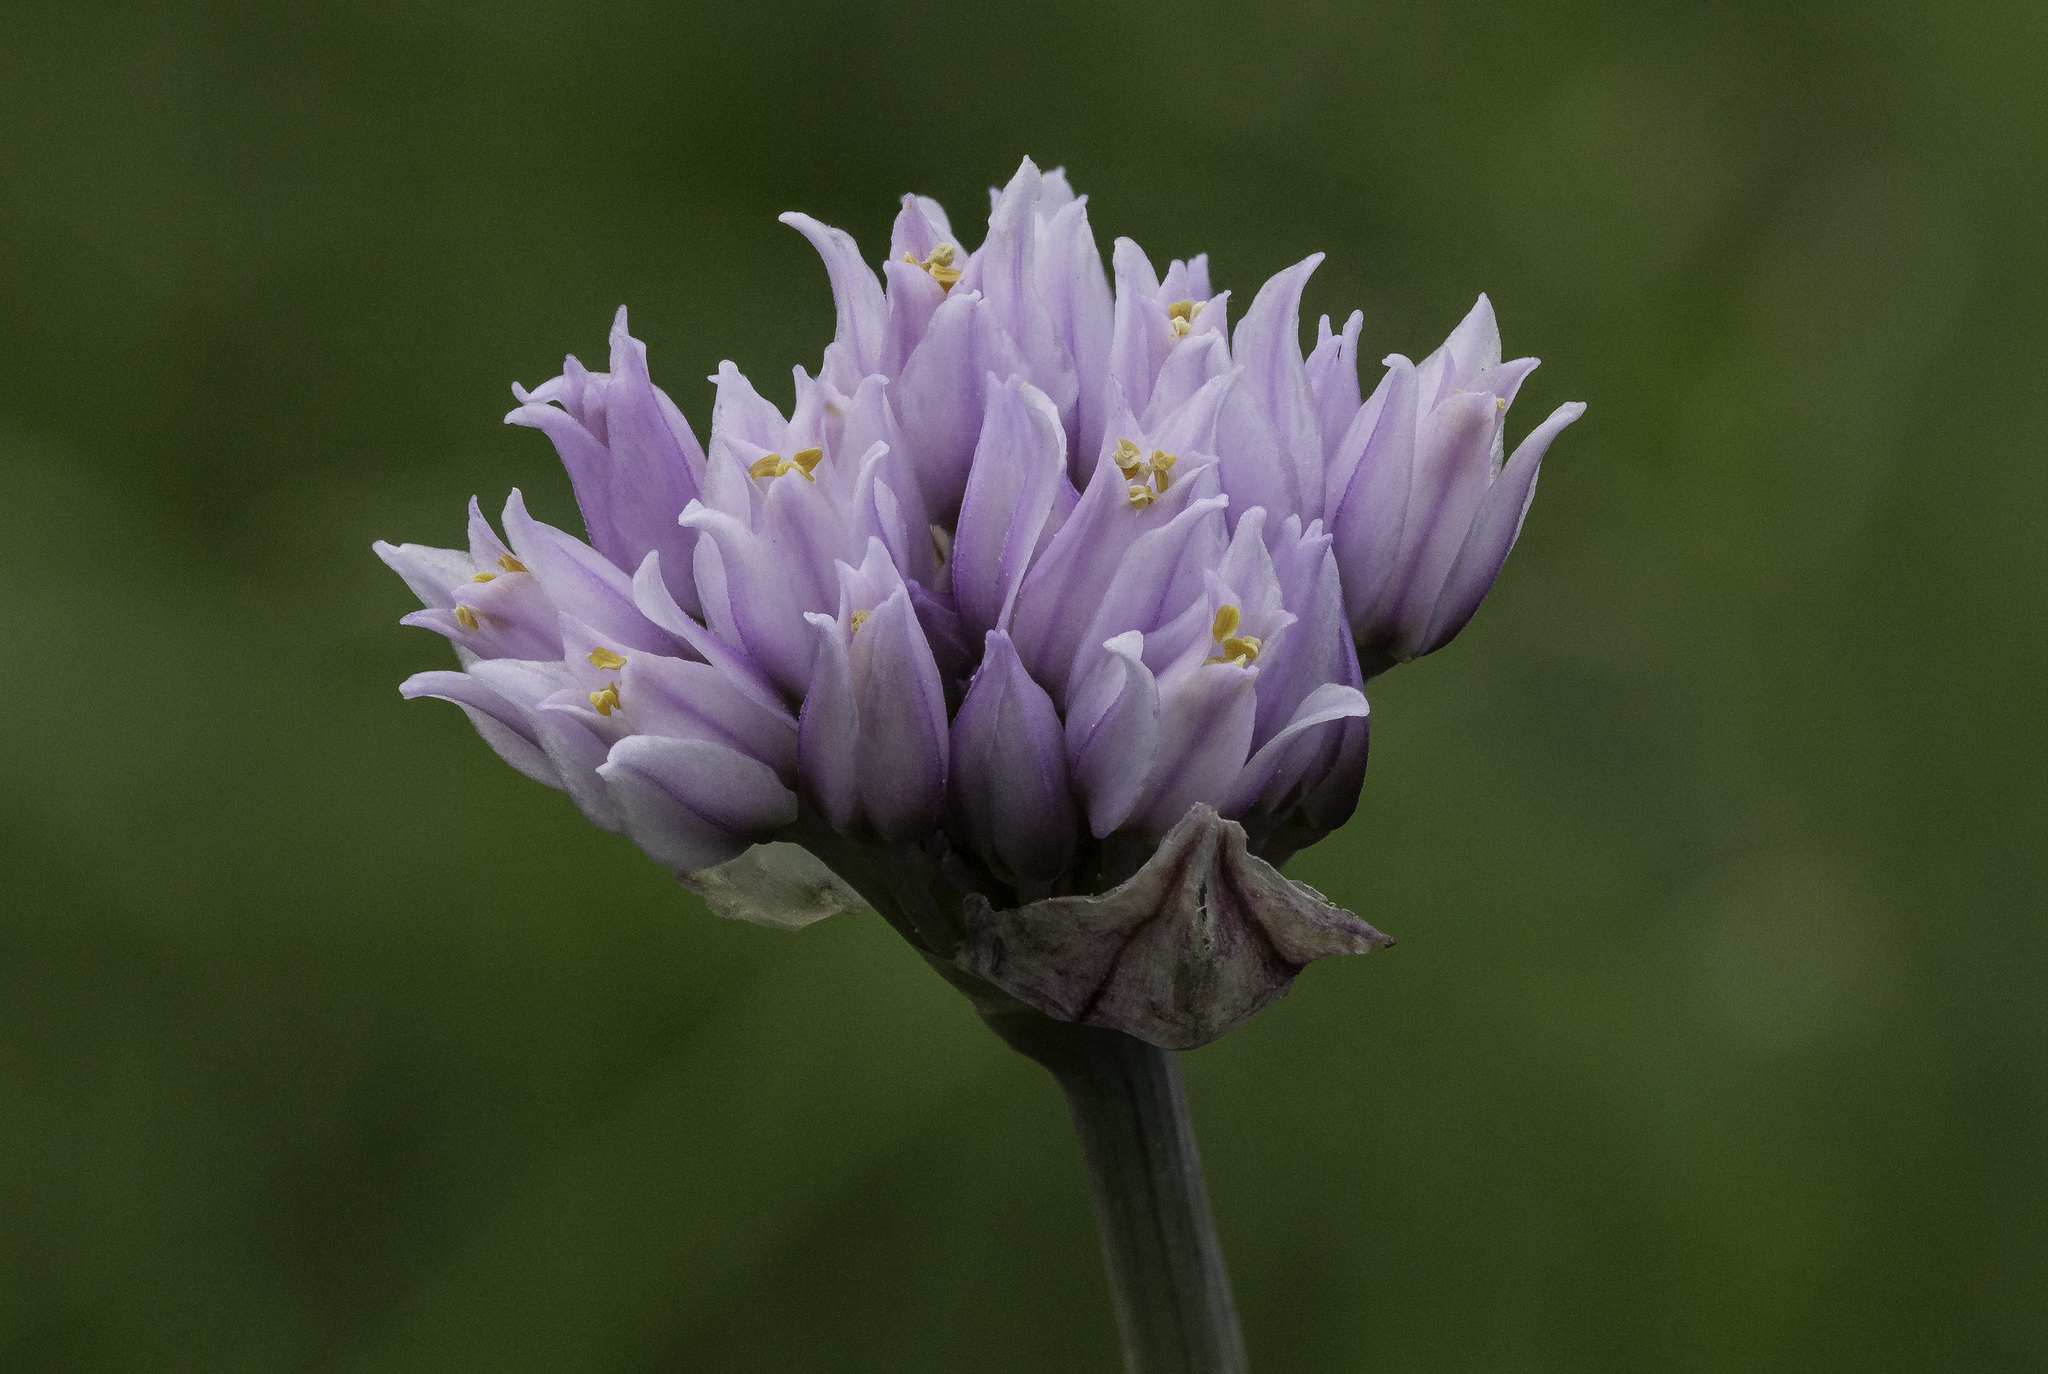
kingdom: Plantae
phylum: Tracheophyta
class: Liliopsida
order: Asparagales
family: Amaryllidaceae
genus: Allium
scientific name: Allium geyeri
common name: Geyer's onion
